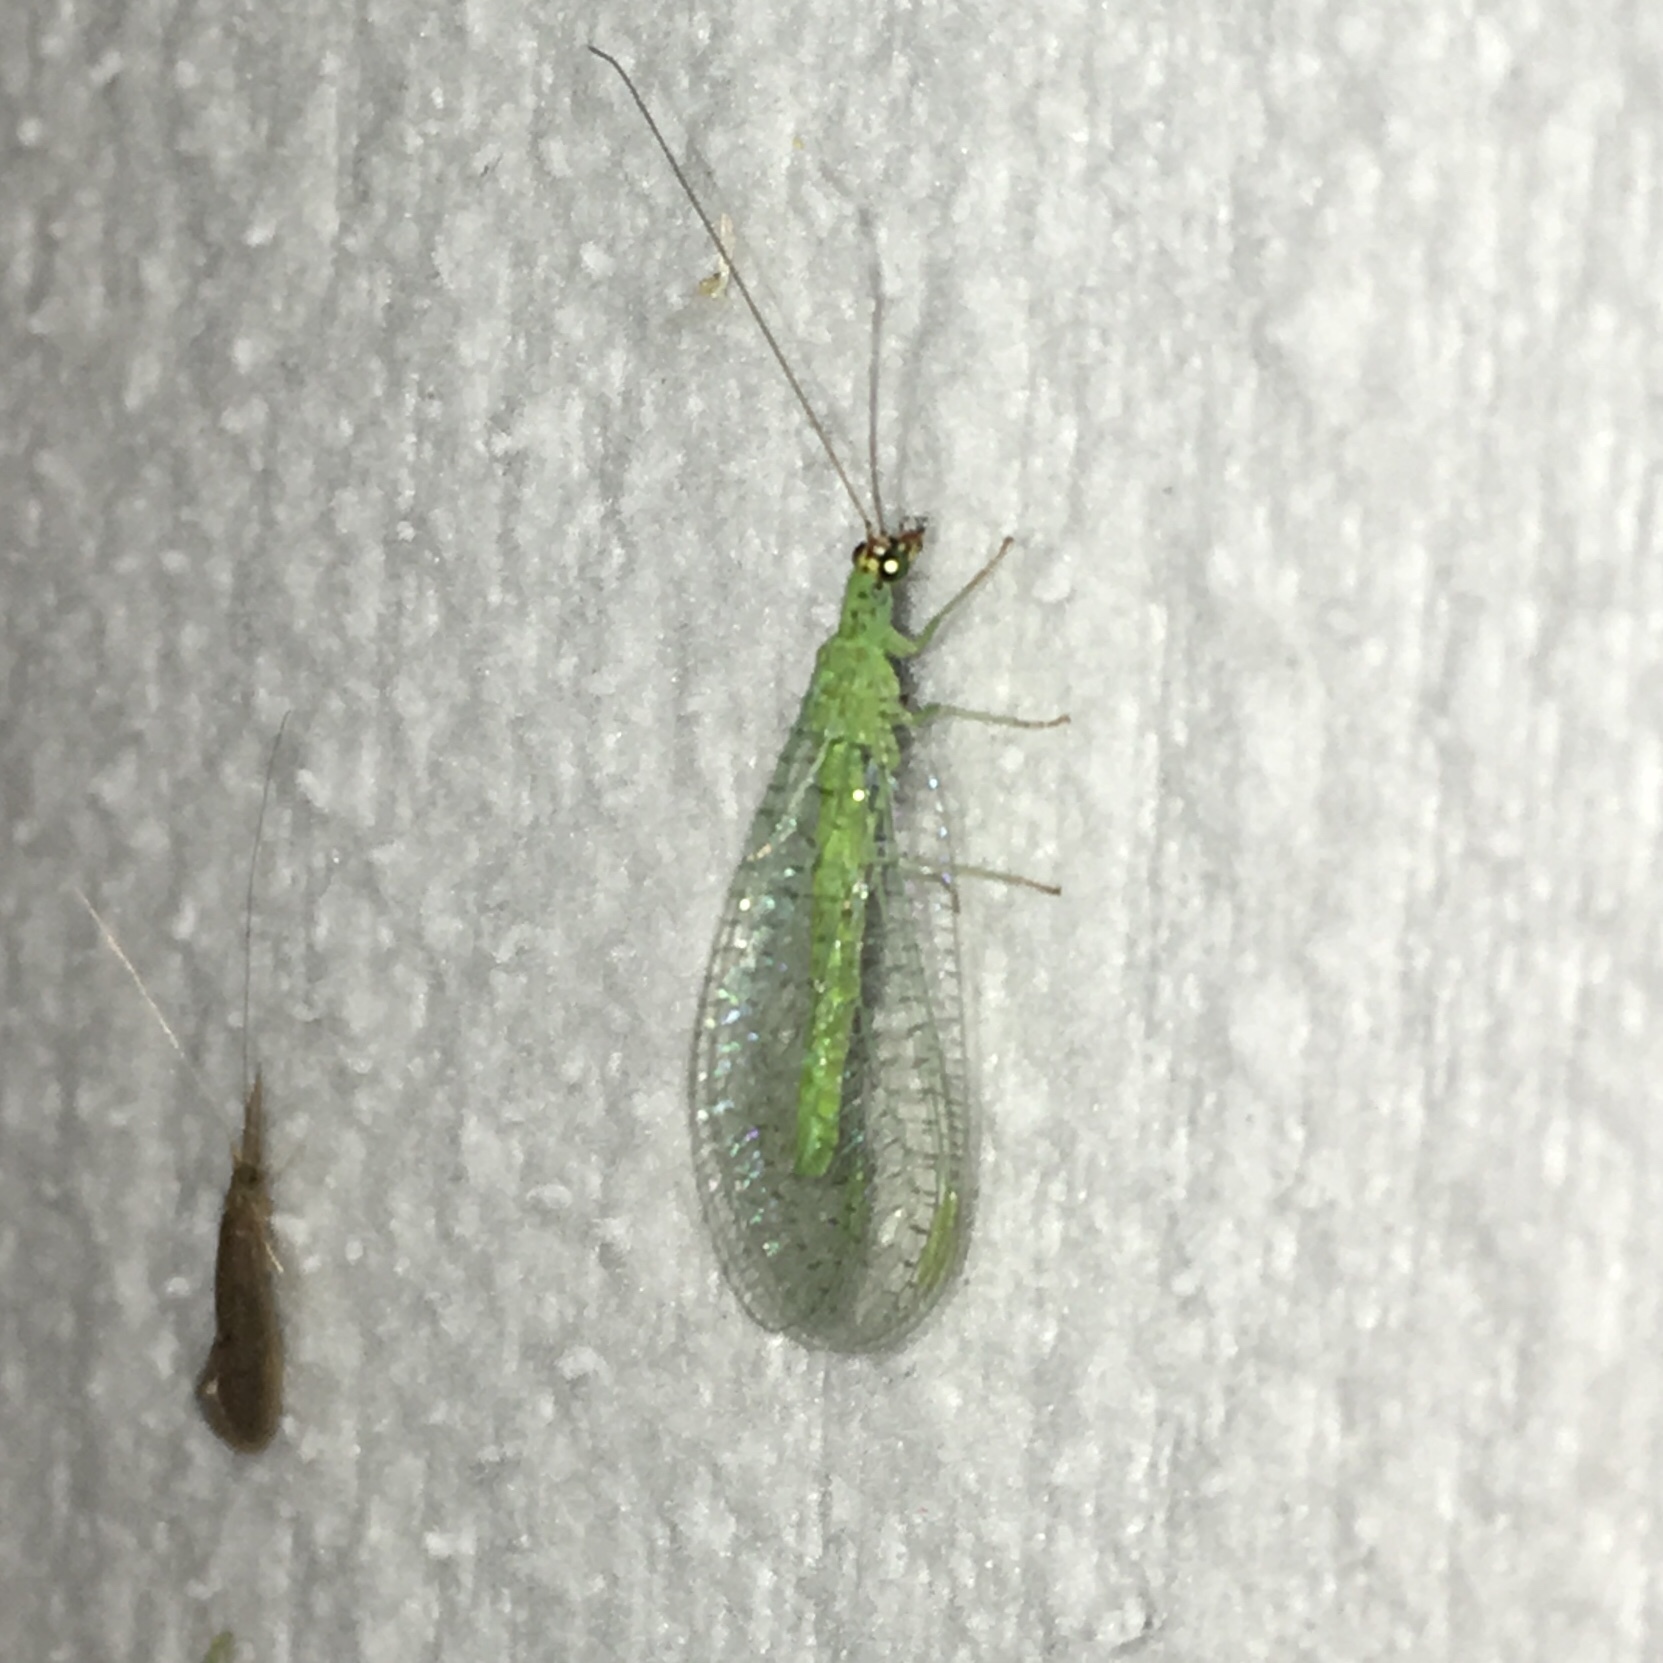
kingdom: Animalia
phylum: Arthropoda
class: Insecta
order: Neuroptera
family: Chrysopidae
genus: Chrysopa
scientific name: Chrysopa oculata
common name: Golden-eyed lacewing
